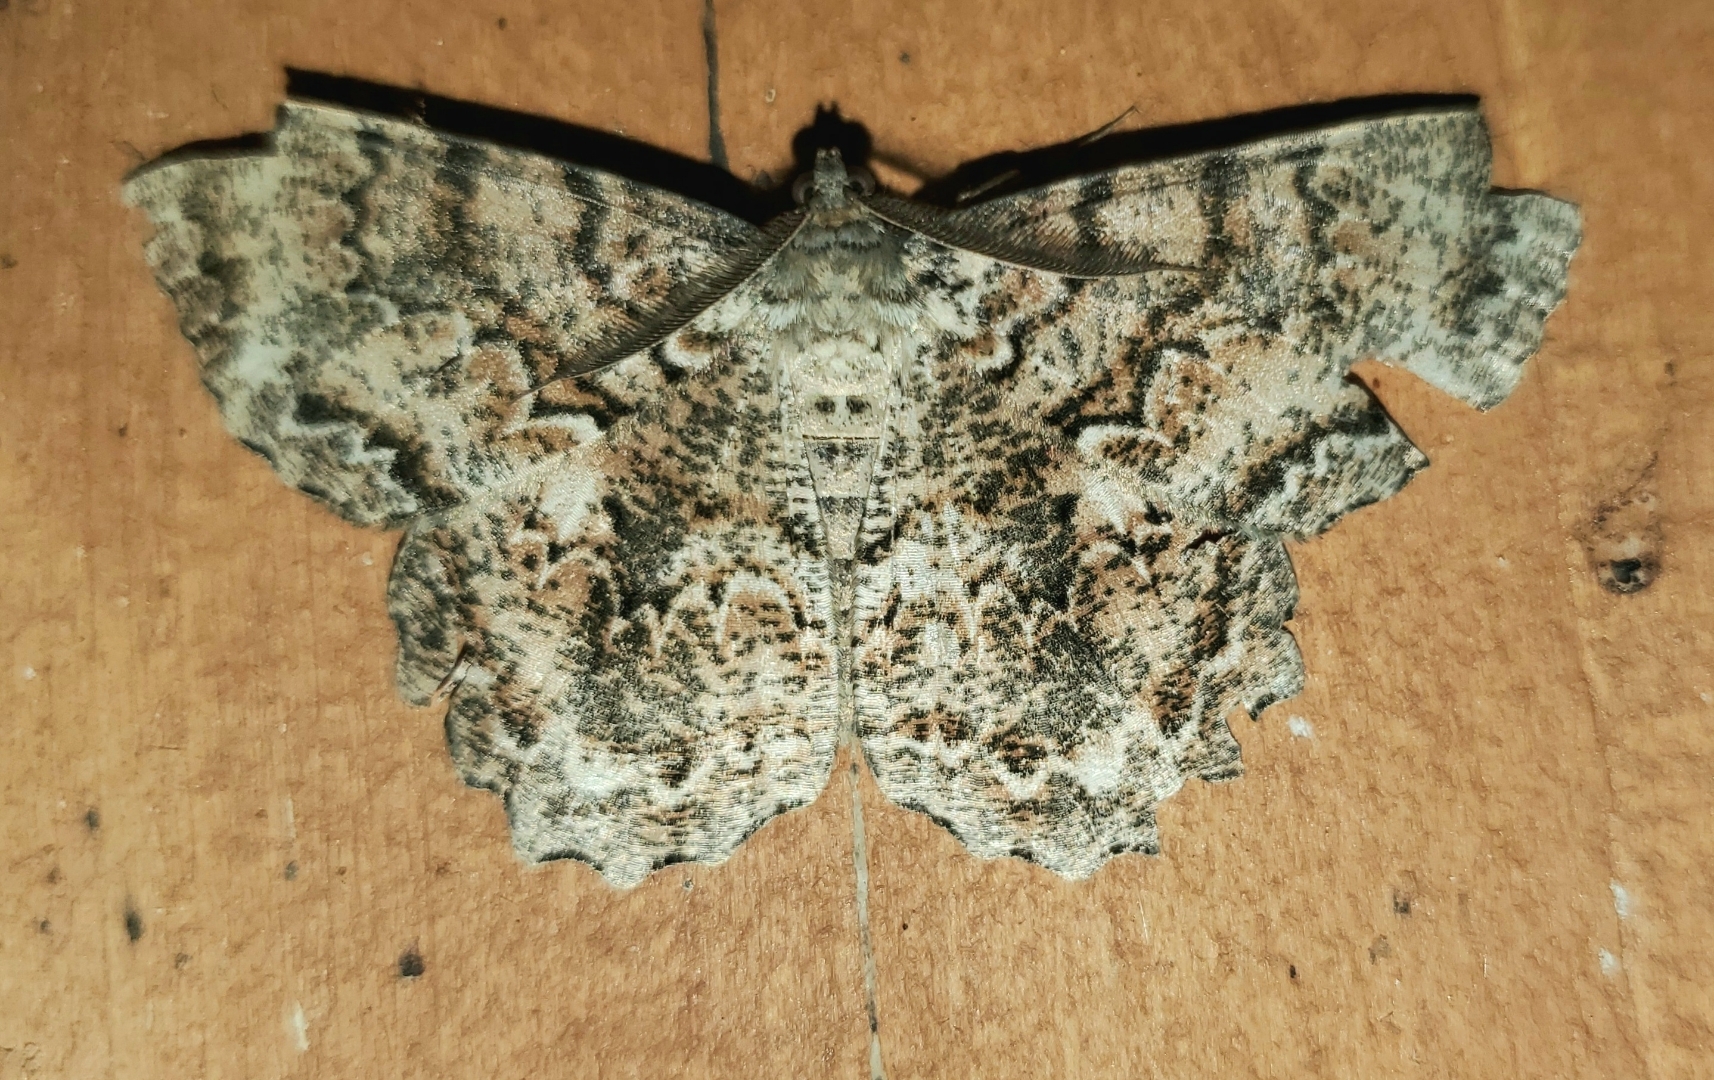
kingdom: Animalia
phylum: Arthropoda
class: Insecta
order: Lepidoptera
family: Geometridae
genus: Epimecis
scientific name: Epimecis hortaria
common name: Tulip-tree beauty
